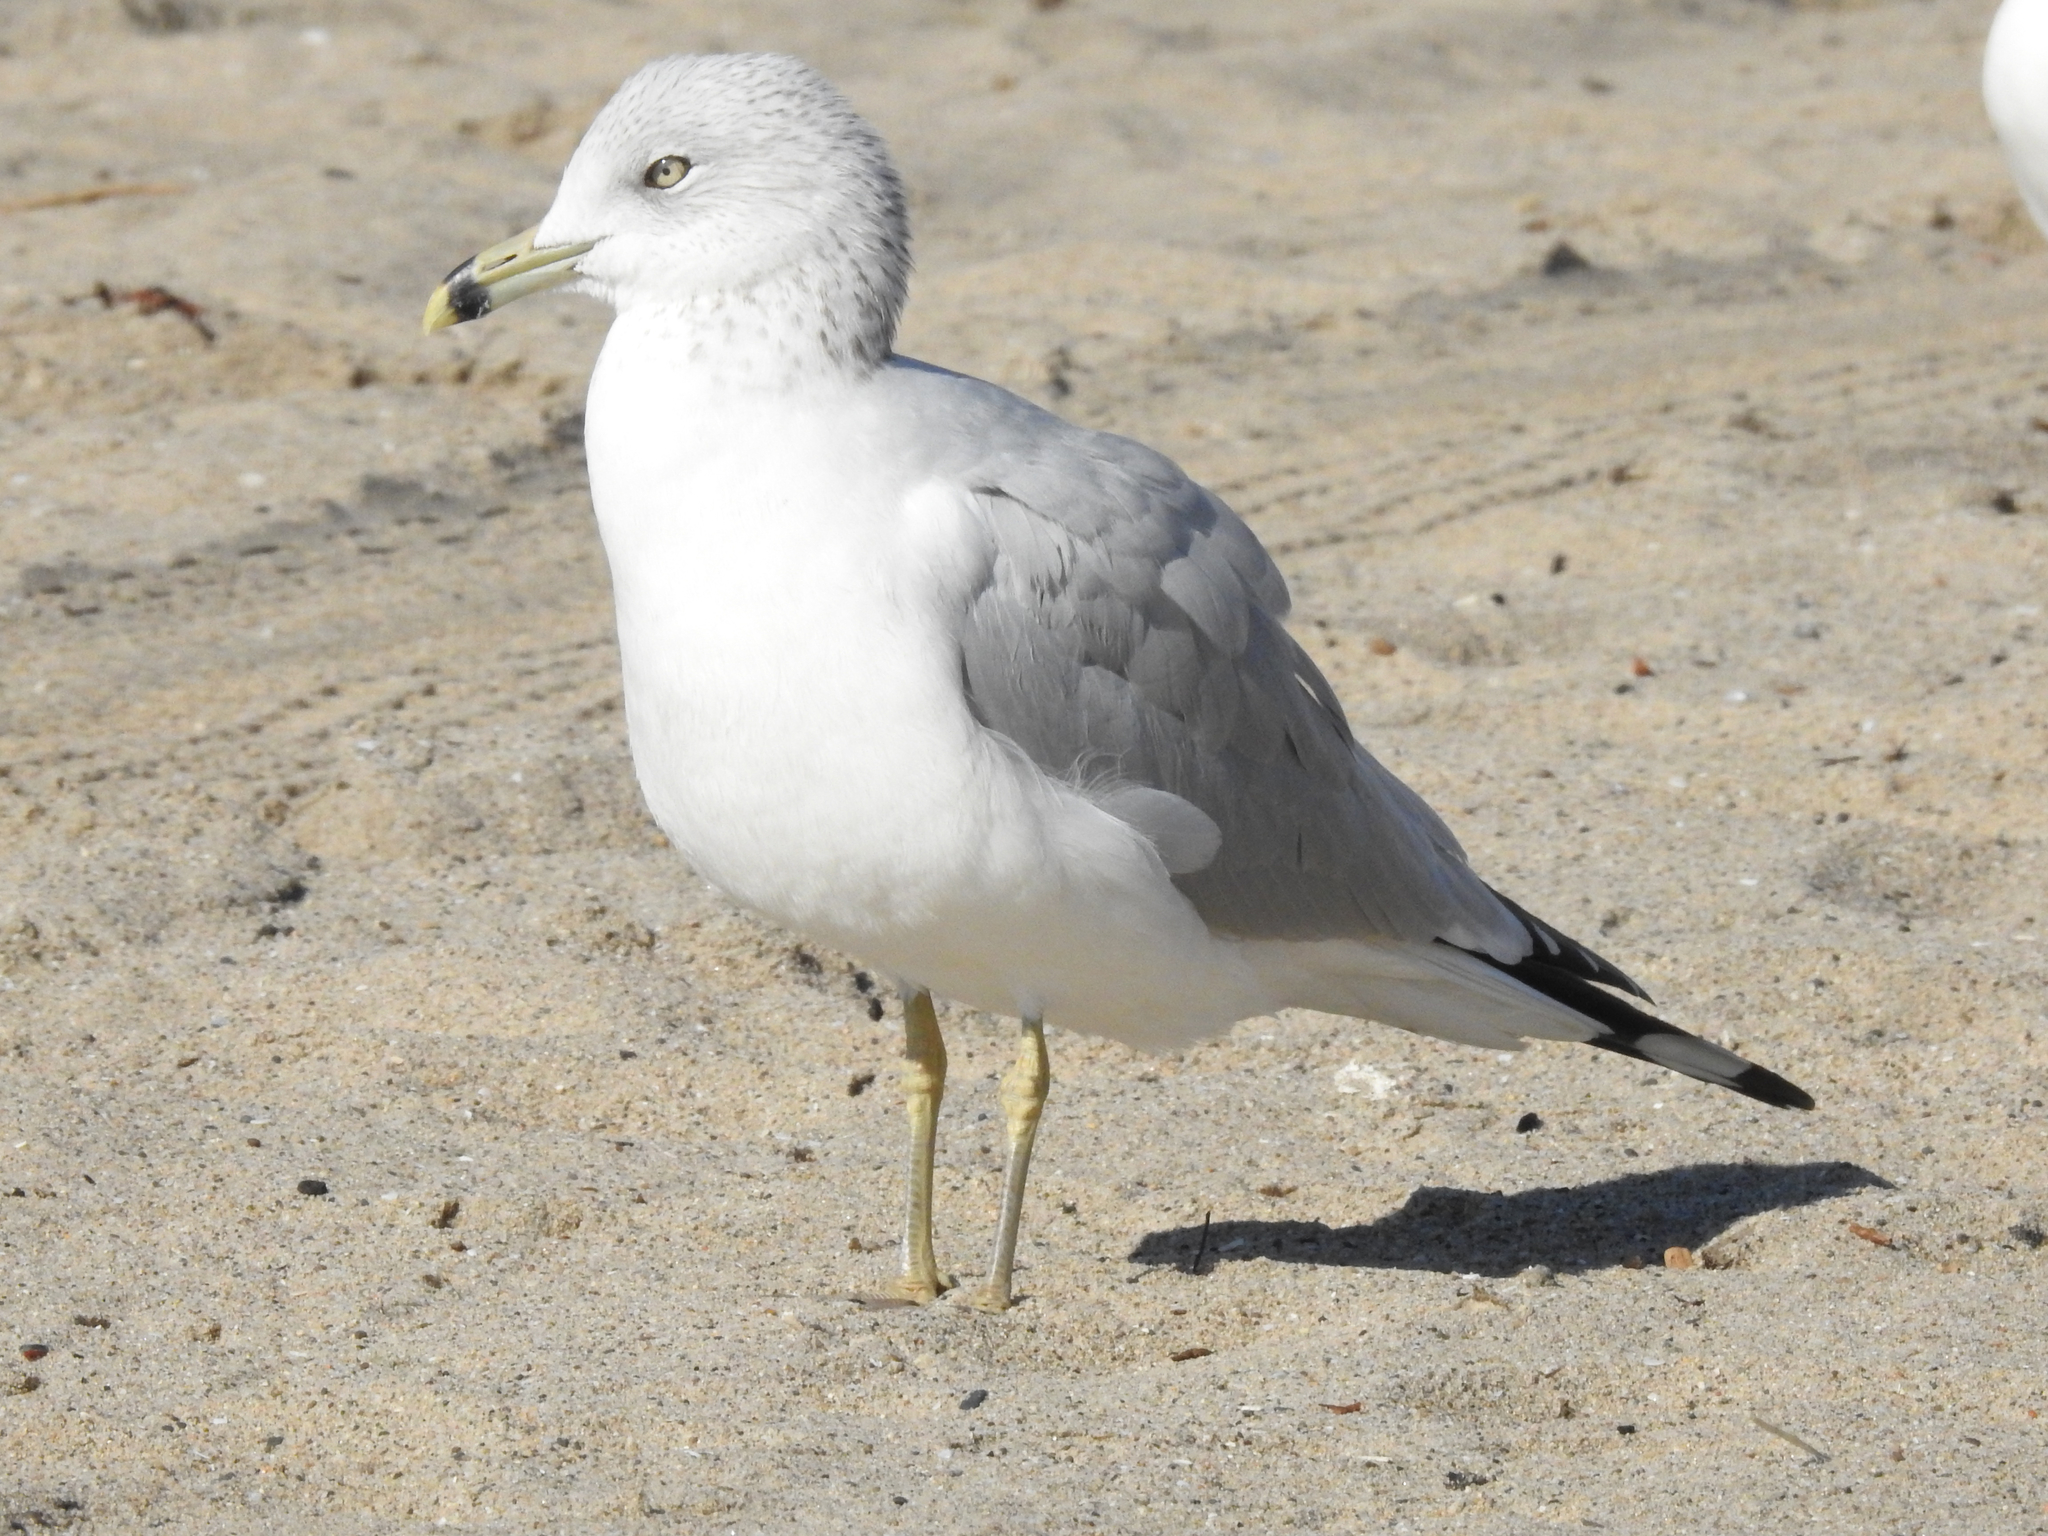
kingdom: Animalia
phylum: Chordata
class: Aves
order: Charadriiformes
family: Laridae
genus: Larus
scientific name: Larus delawarensis
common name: Ring-billed gull
